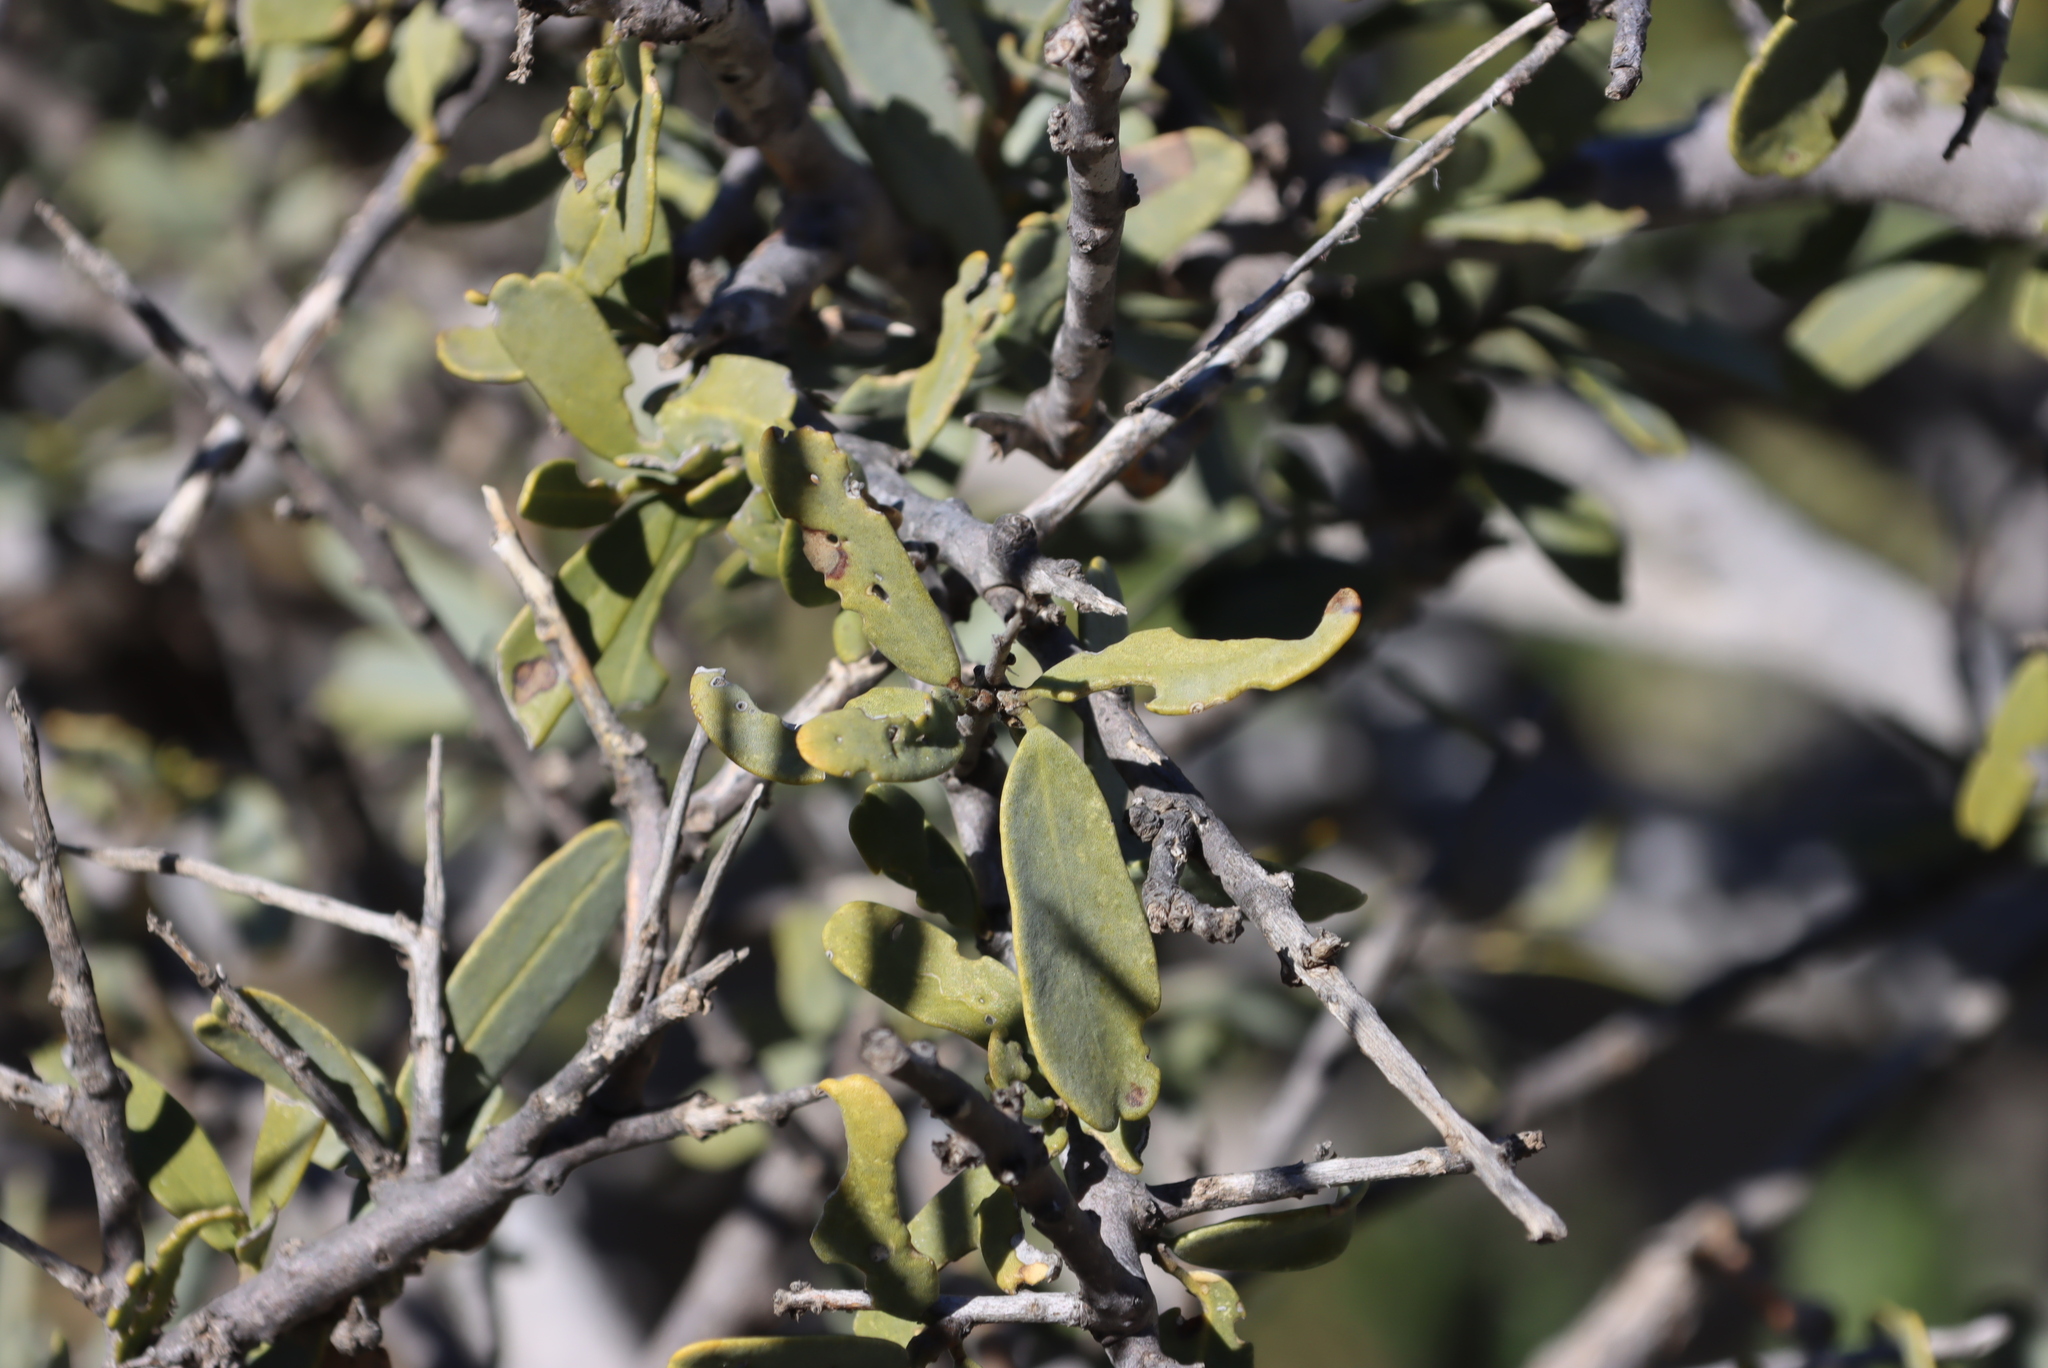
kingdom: Plantae
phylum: Tracheophyta
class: Magnoliopsida
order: Brassicales
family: Capparaceae
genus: Boscia
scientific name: Boscia albitrunca
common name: Caper bush
